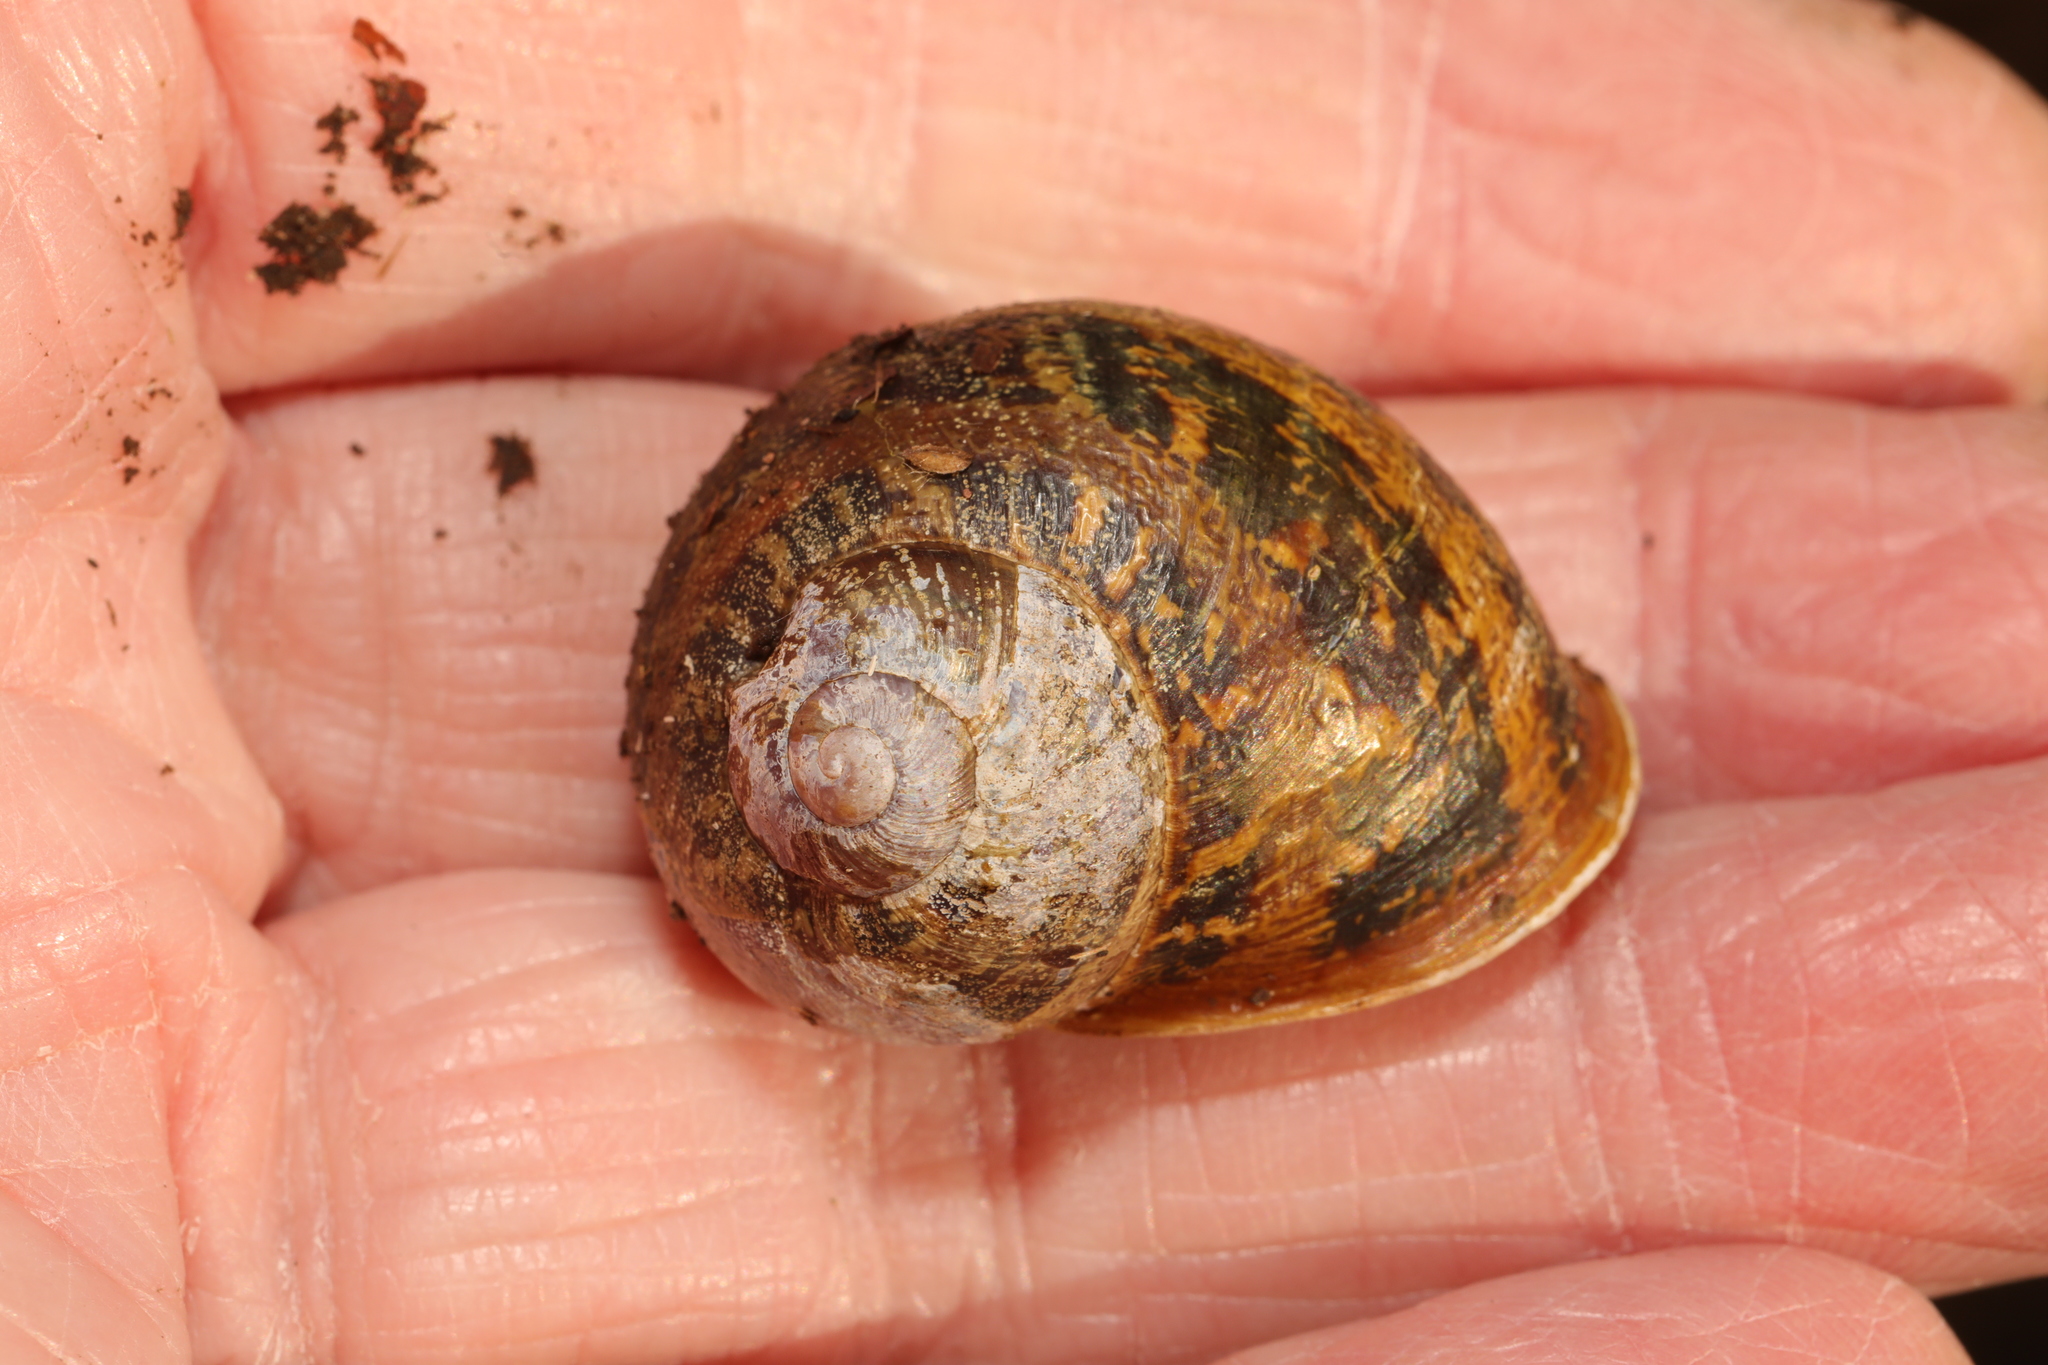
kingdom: Animalia
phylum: Mollusca
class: Gastropoda
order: Stylommatophora
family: Helicidae
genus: Cornu
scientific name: Cornu aspersum
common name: Brown garden snail
